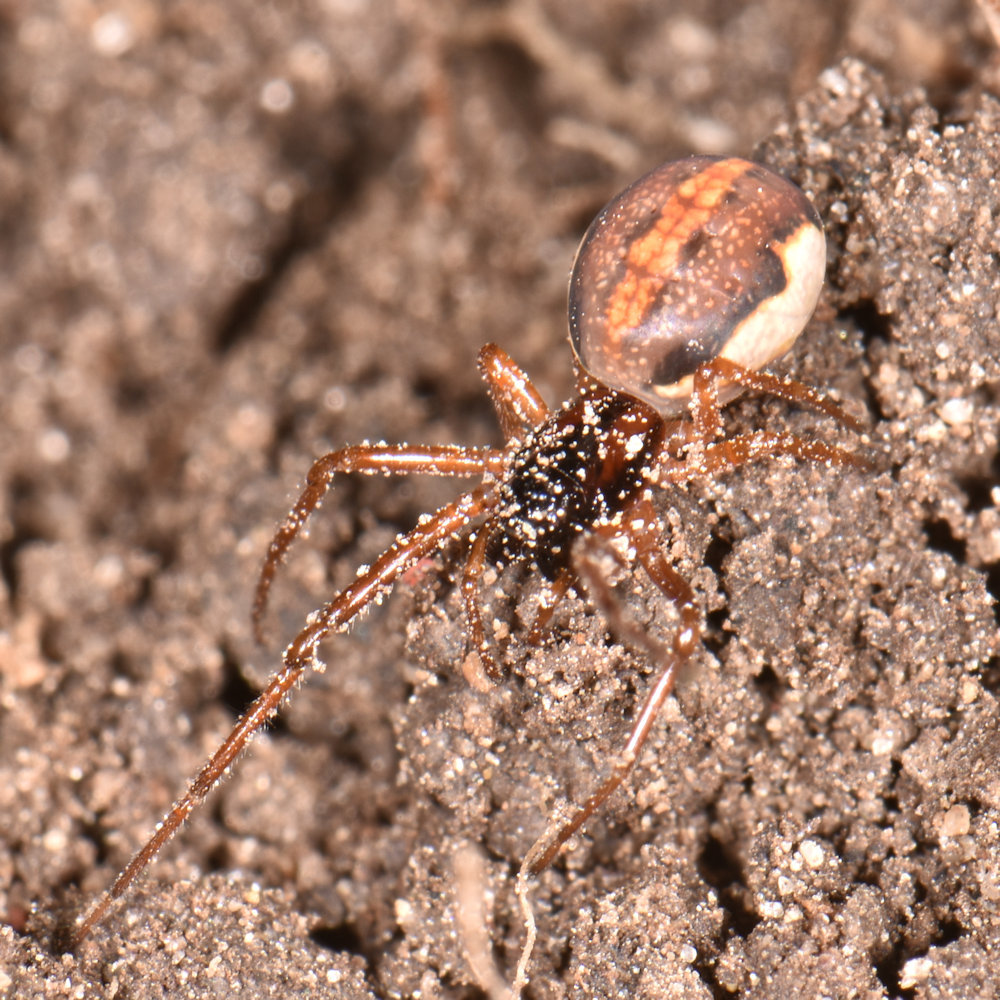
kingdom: Animalia
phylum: Arthropoda
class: Arachnida
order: Araneae
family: Tetragnathidae
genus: Pachygnatha
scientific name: Pachygnatha autumnalis
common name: Big-eyed thick-jawed spider
